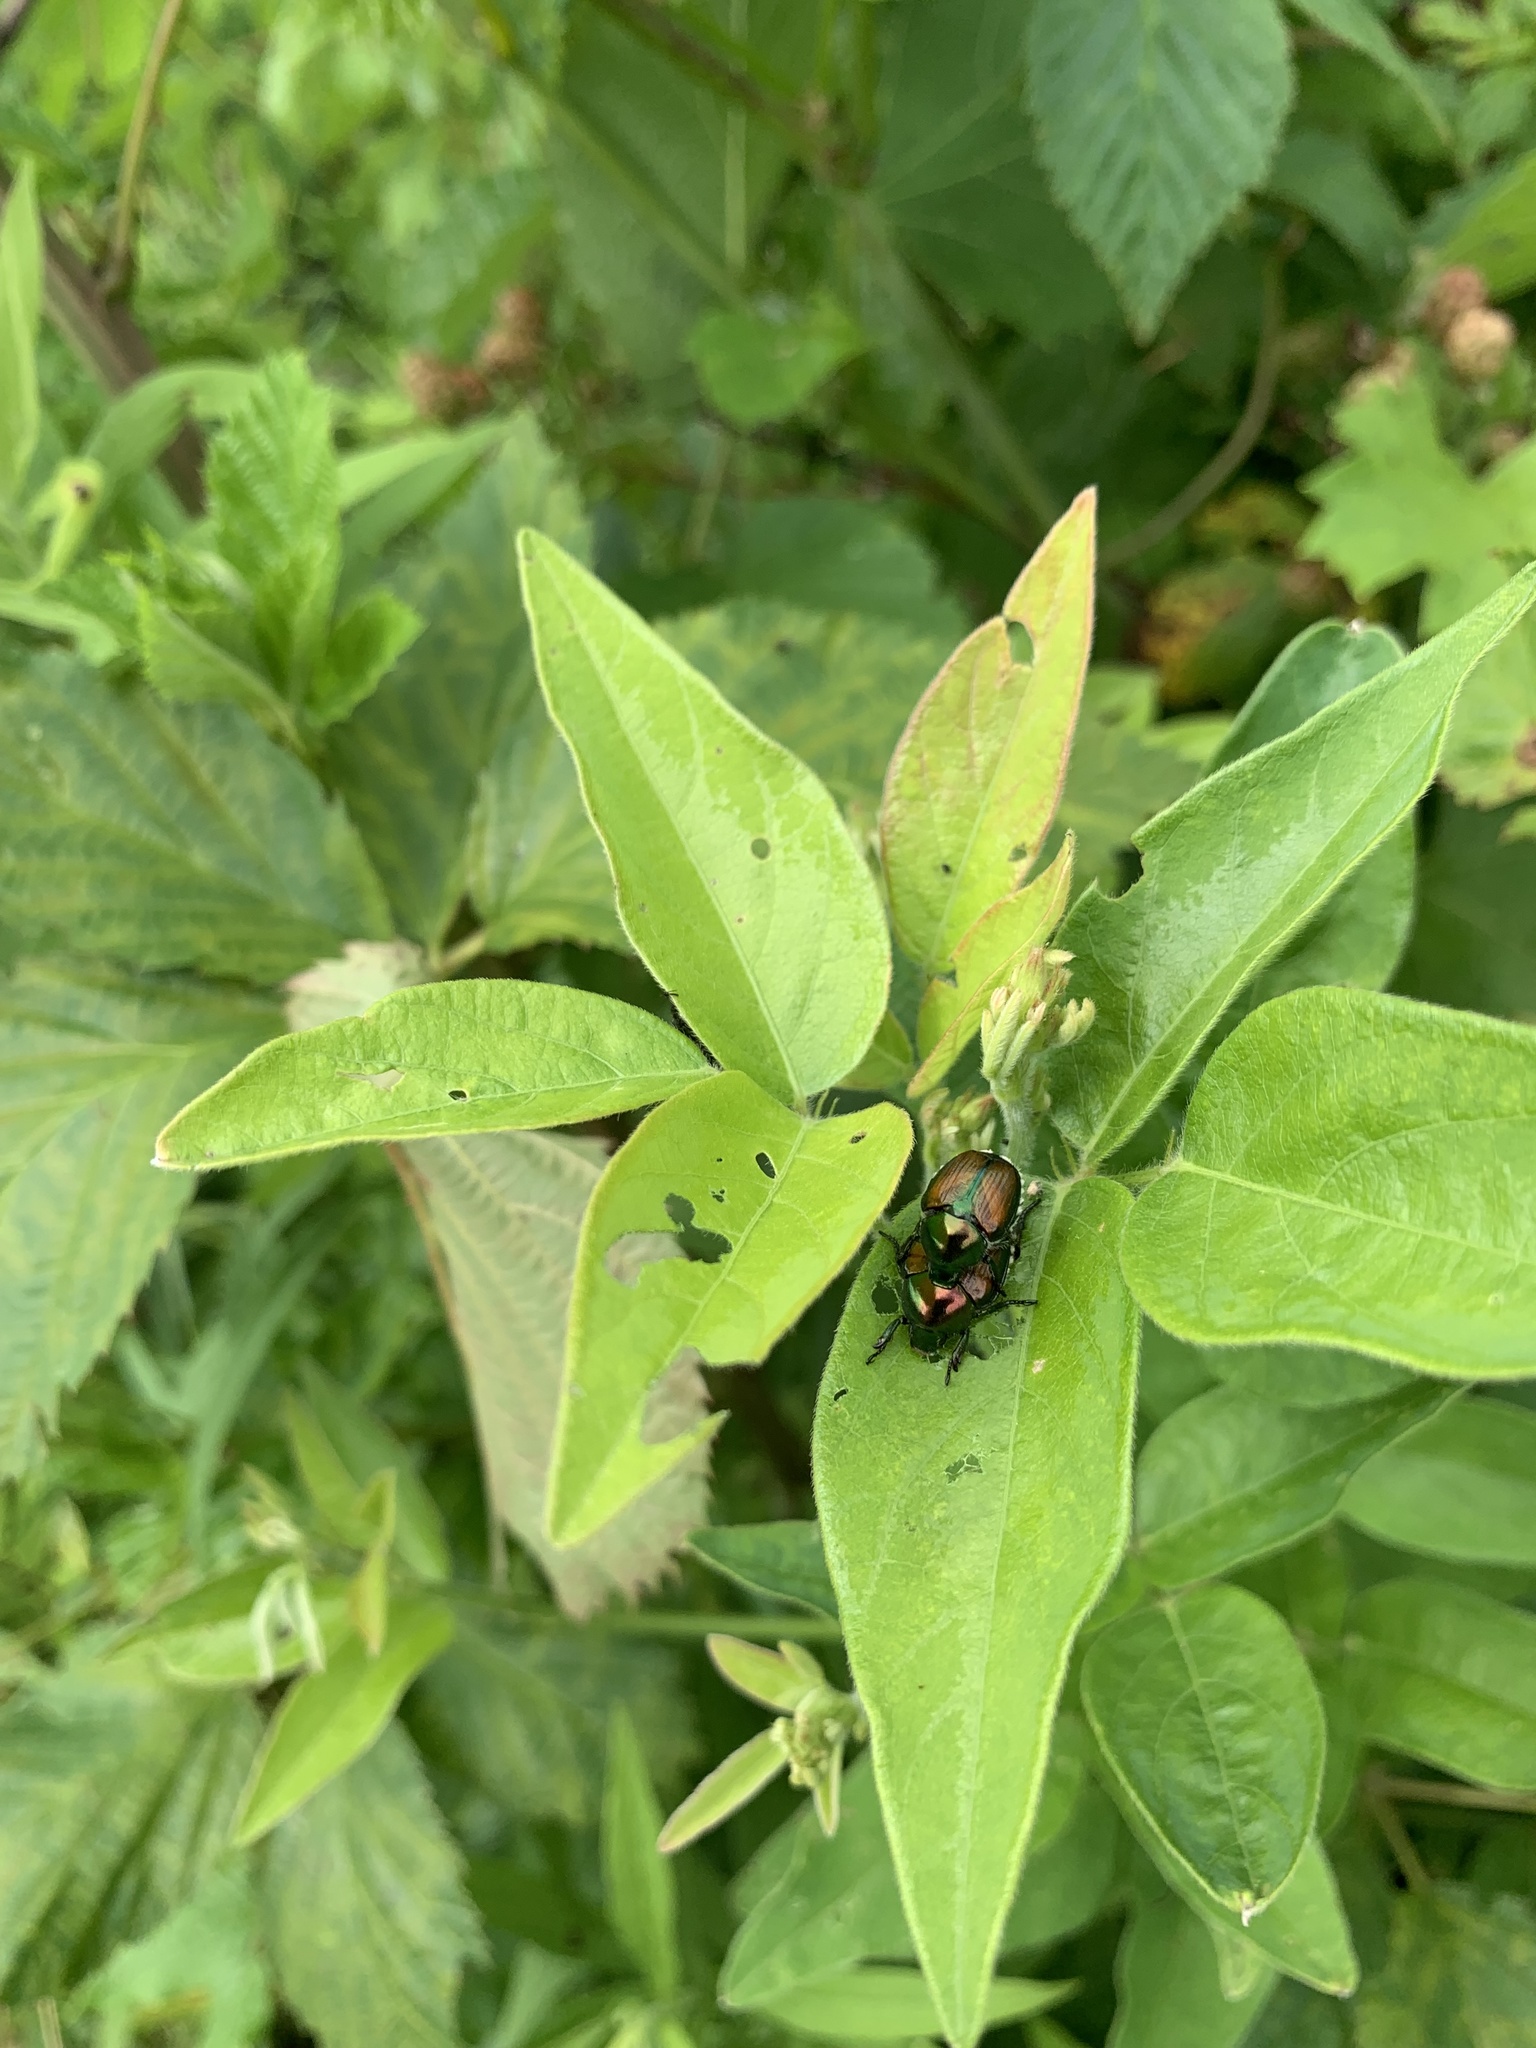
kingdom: Animalia
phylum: Arthropoda
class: Insecta
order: Coleoptera
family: Scarabaeidae
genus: Popillia
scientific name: Popillia japonica
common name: Japanese beetle
